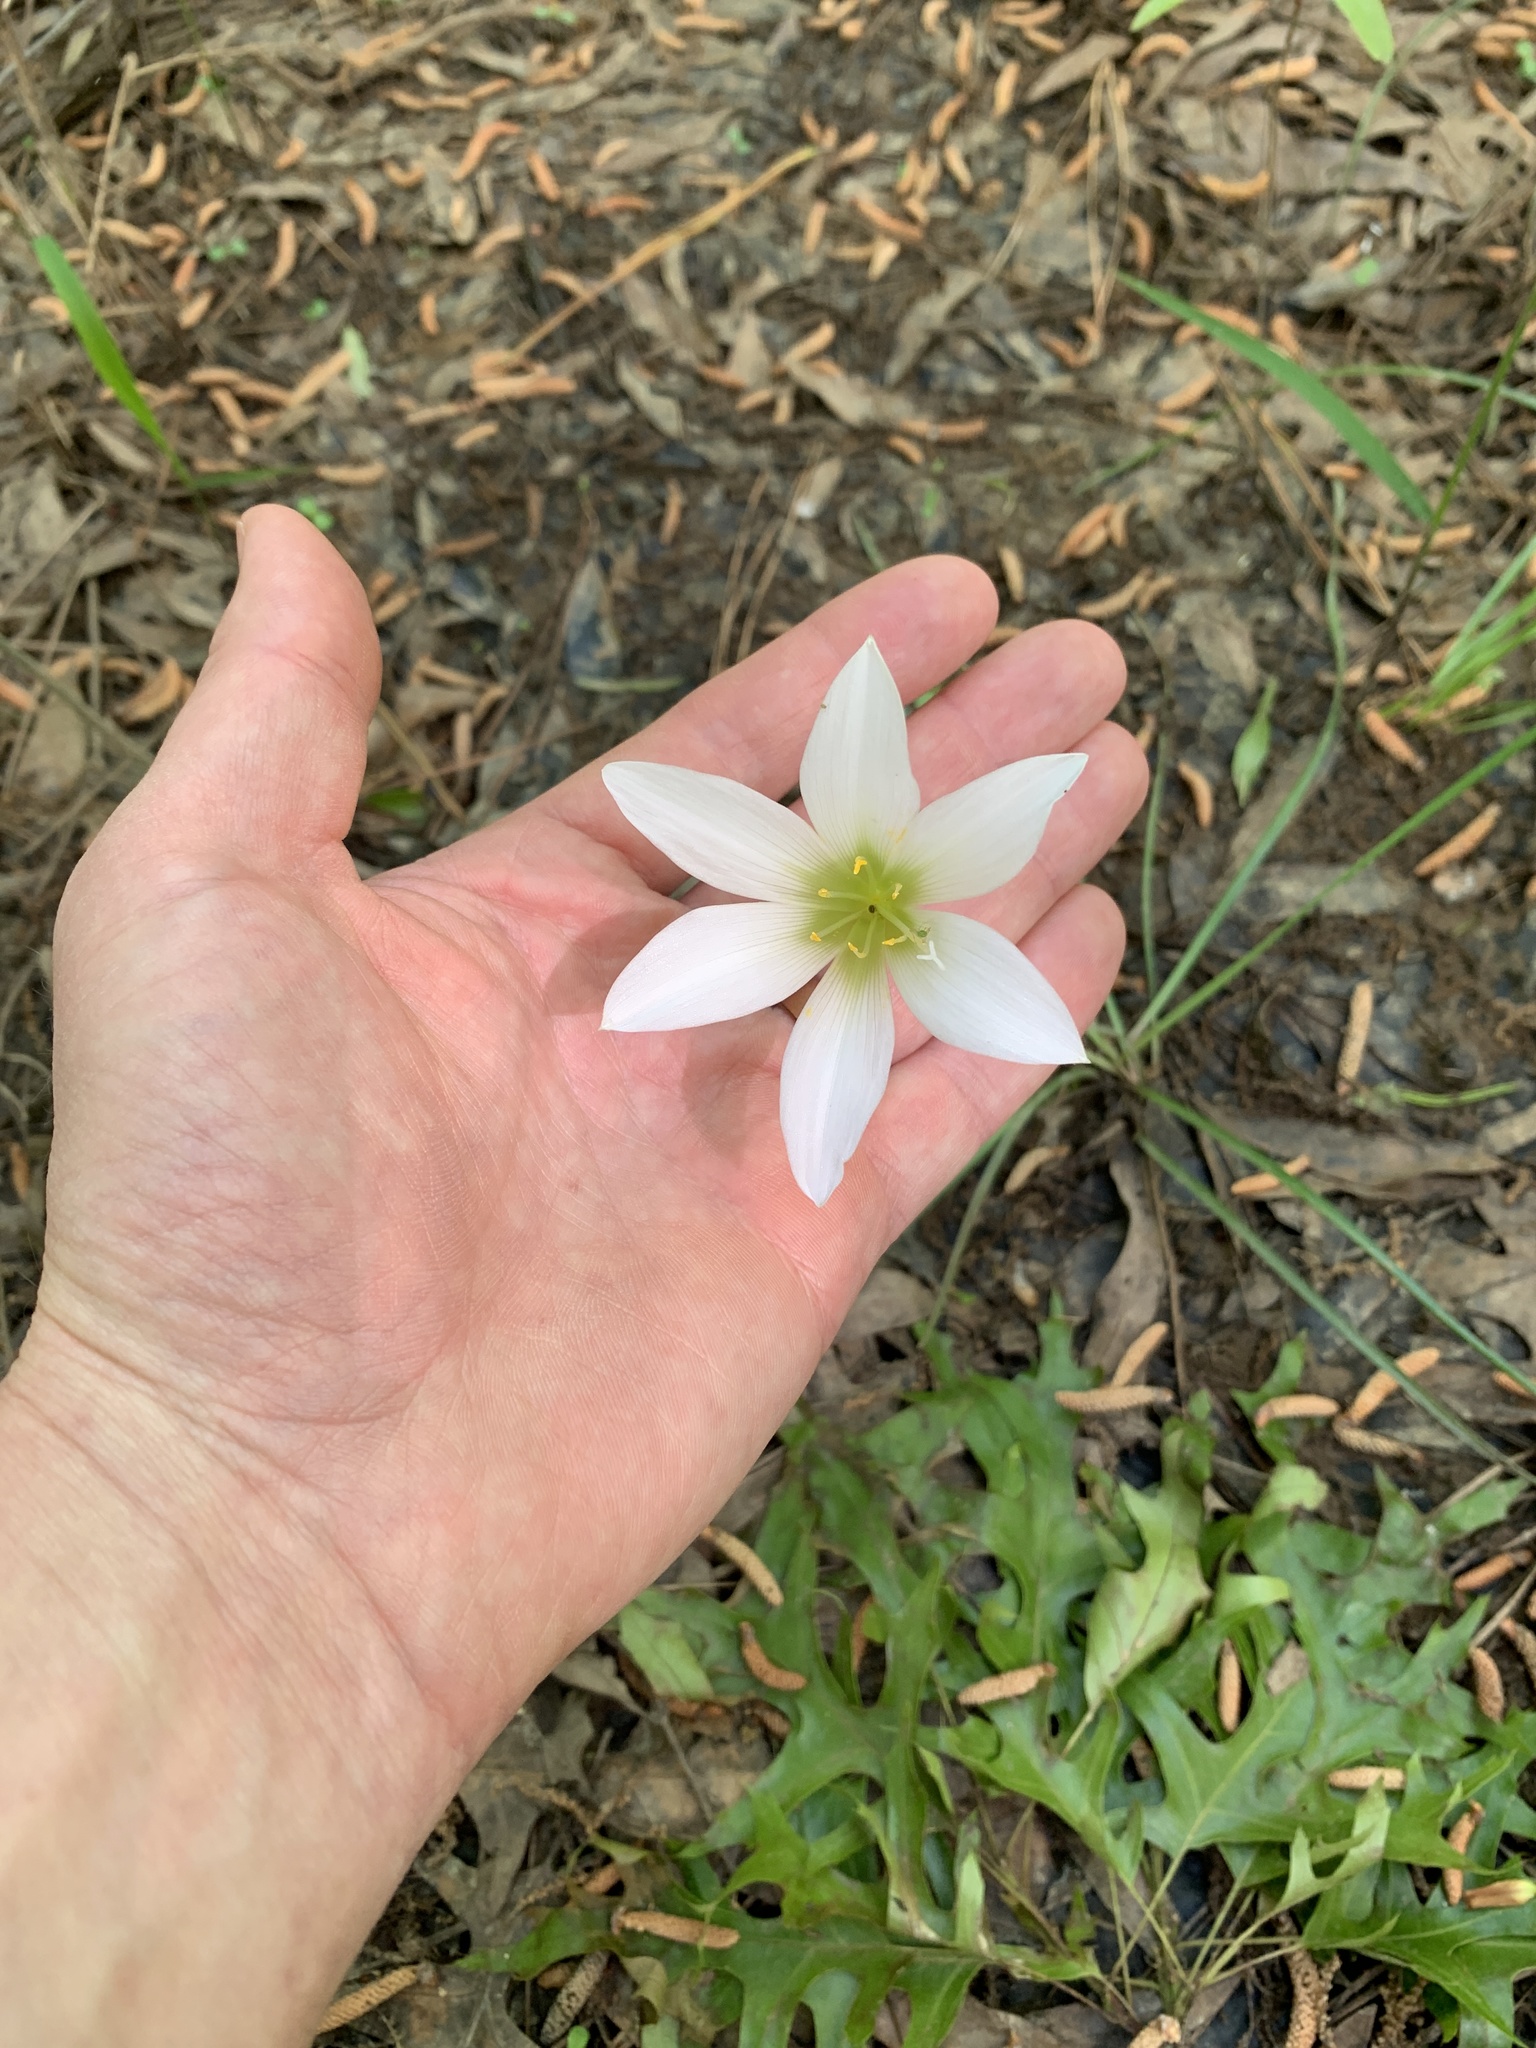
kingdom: Plantae
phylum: Tracheophyta
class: Liliopsida
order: Asparagales
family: Amaryllidaceae
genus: Zephyranthes
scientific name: Zephyranthes atamasco
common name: Atamasco lily
